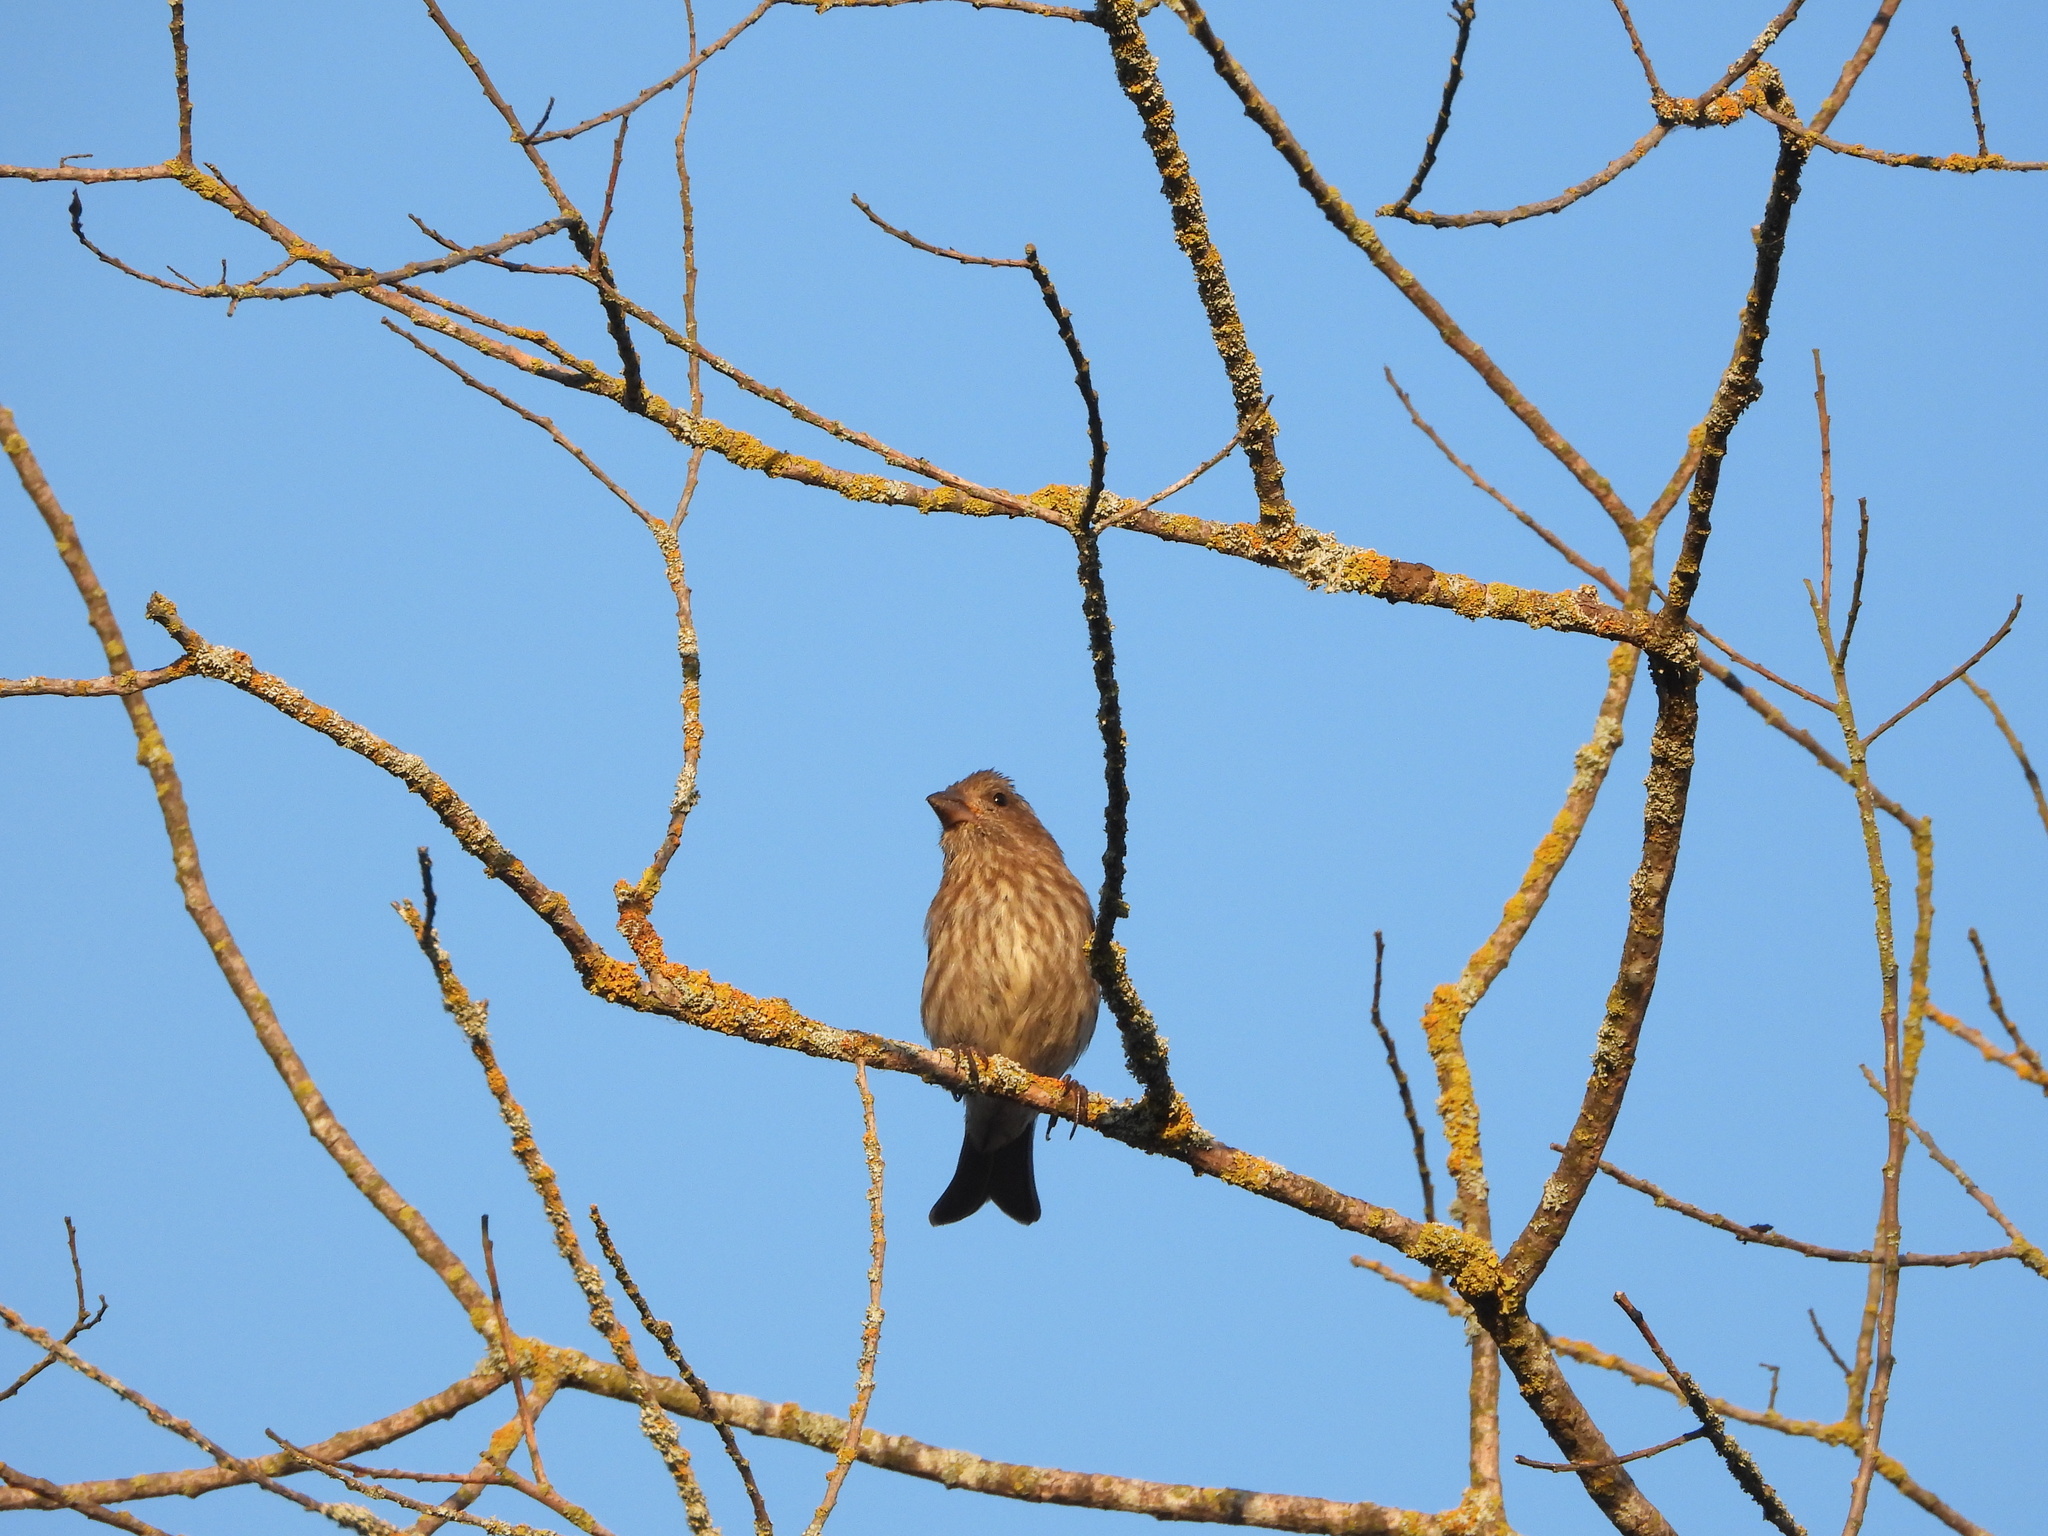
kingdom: Animalia
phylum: Chordata
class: Aves
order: Passeriformes
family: Fringillidae
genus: Haemorhous
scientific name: Haemorhous purpureus
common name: Purple finch
